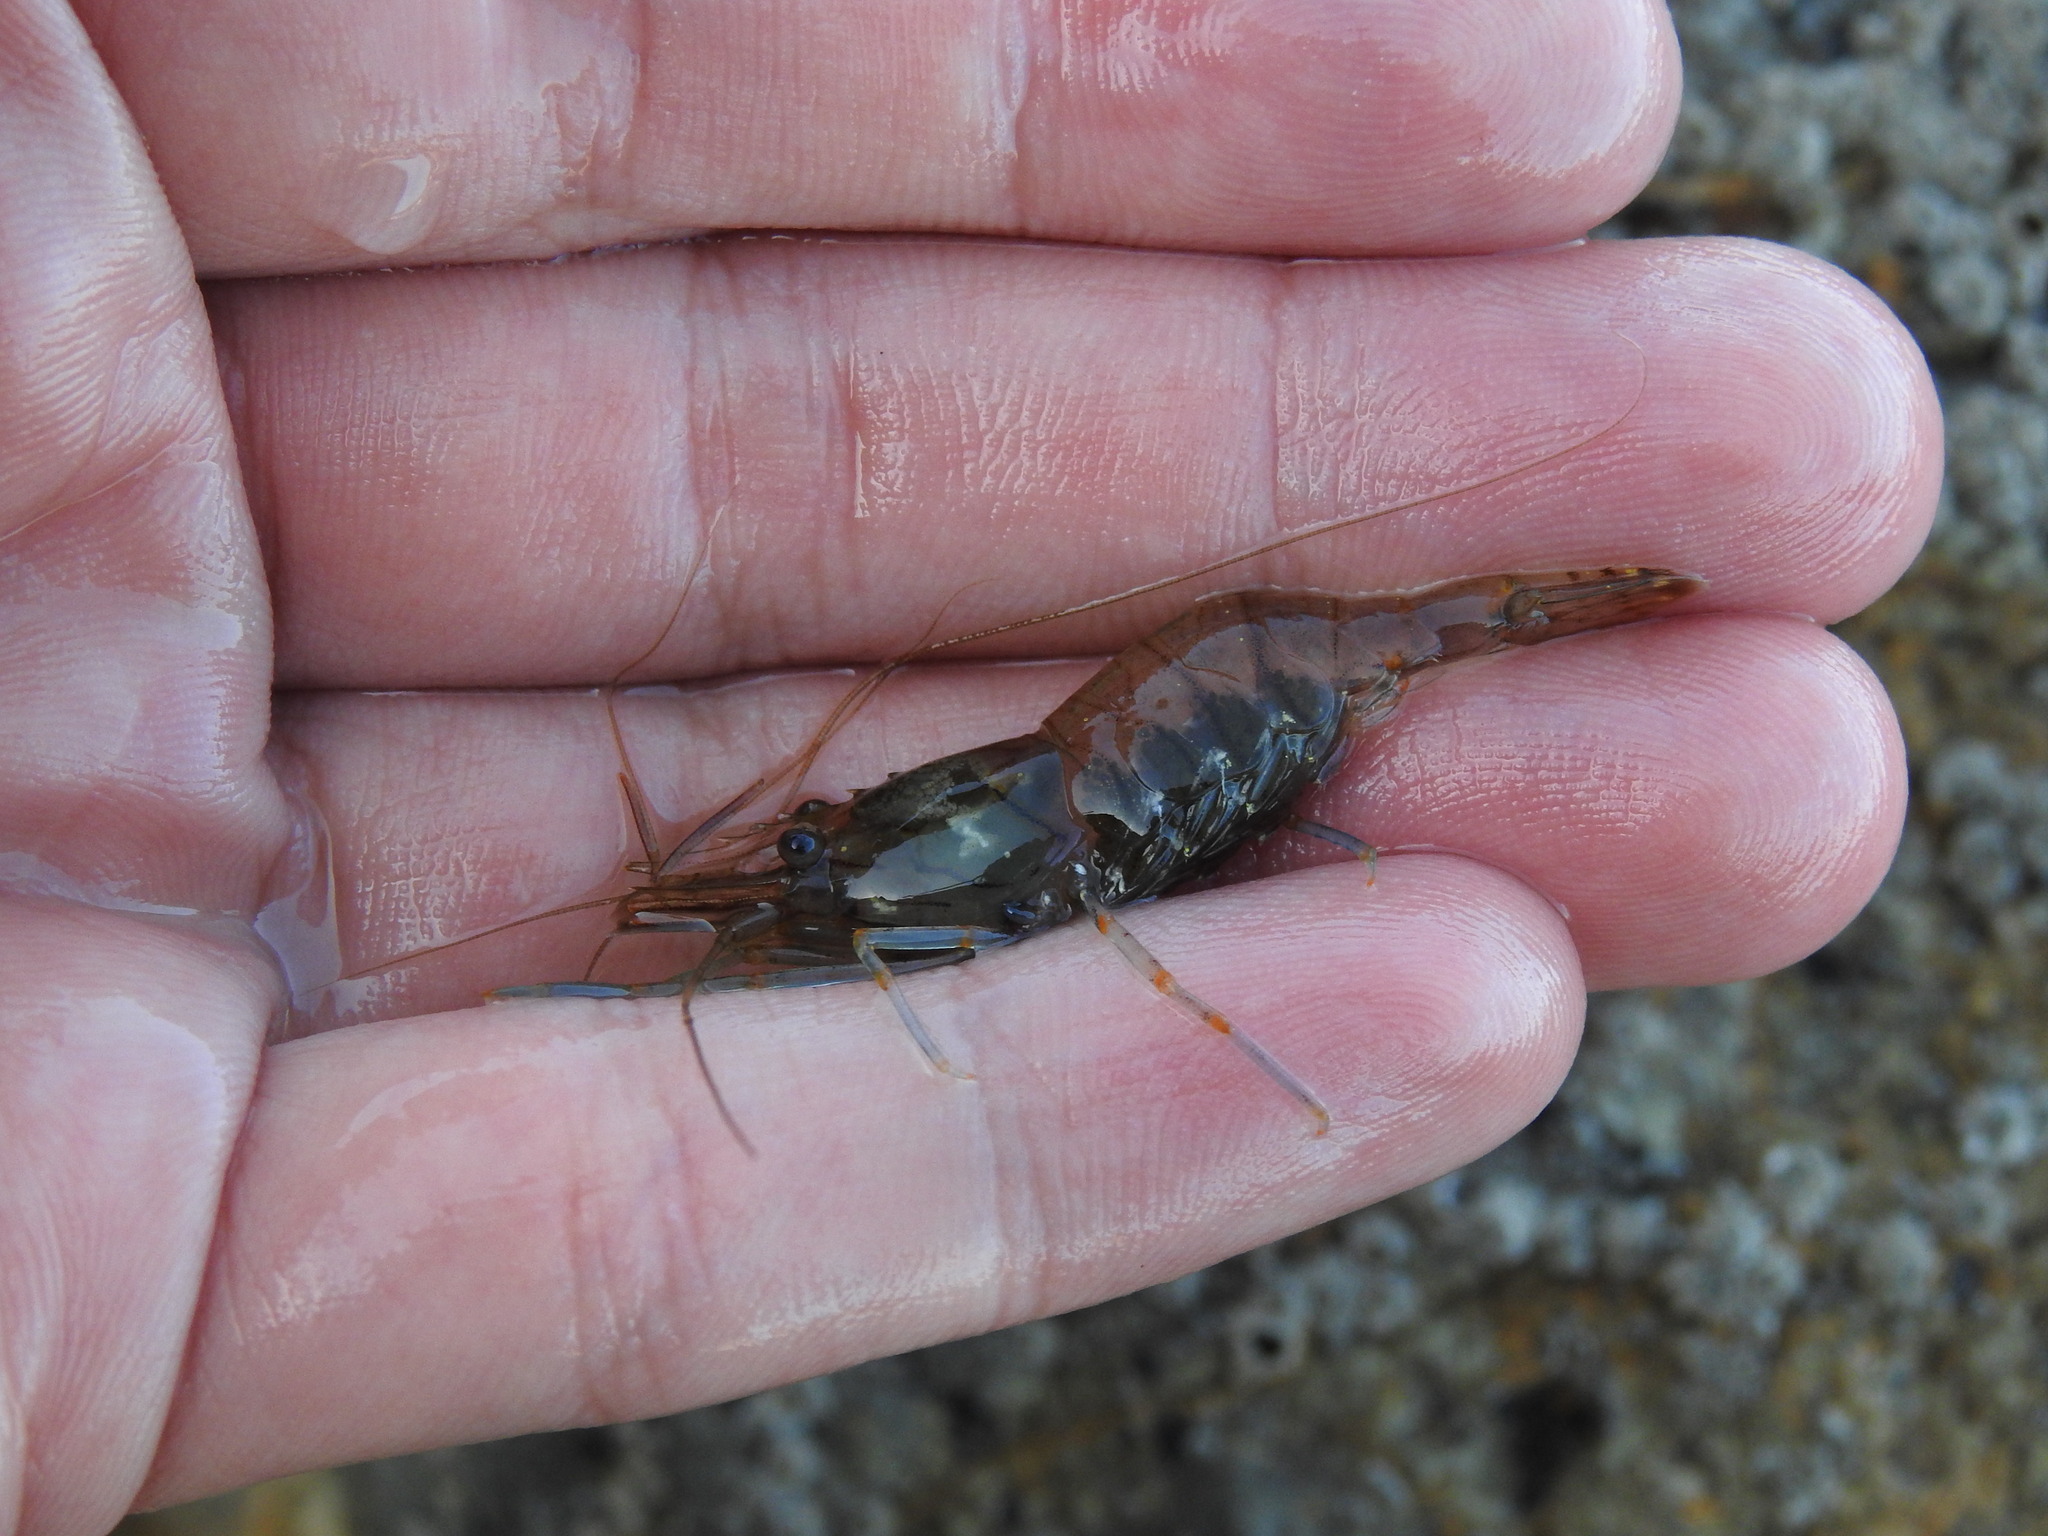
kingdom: Animalia
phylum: Arthropoda
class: Malacostraca
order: Decapoda
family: Palaemonidae
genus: Palaemon
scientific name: Palaemon elegans
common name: Grass prawm
